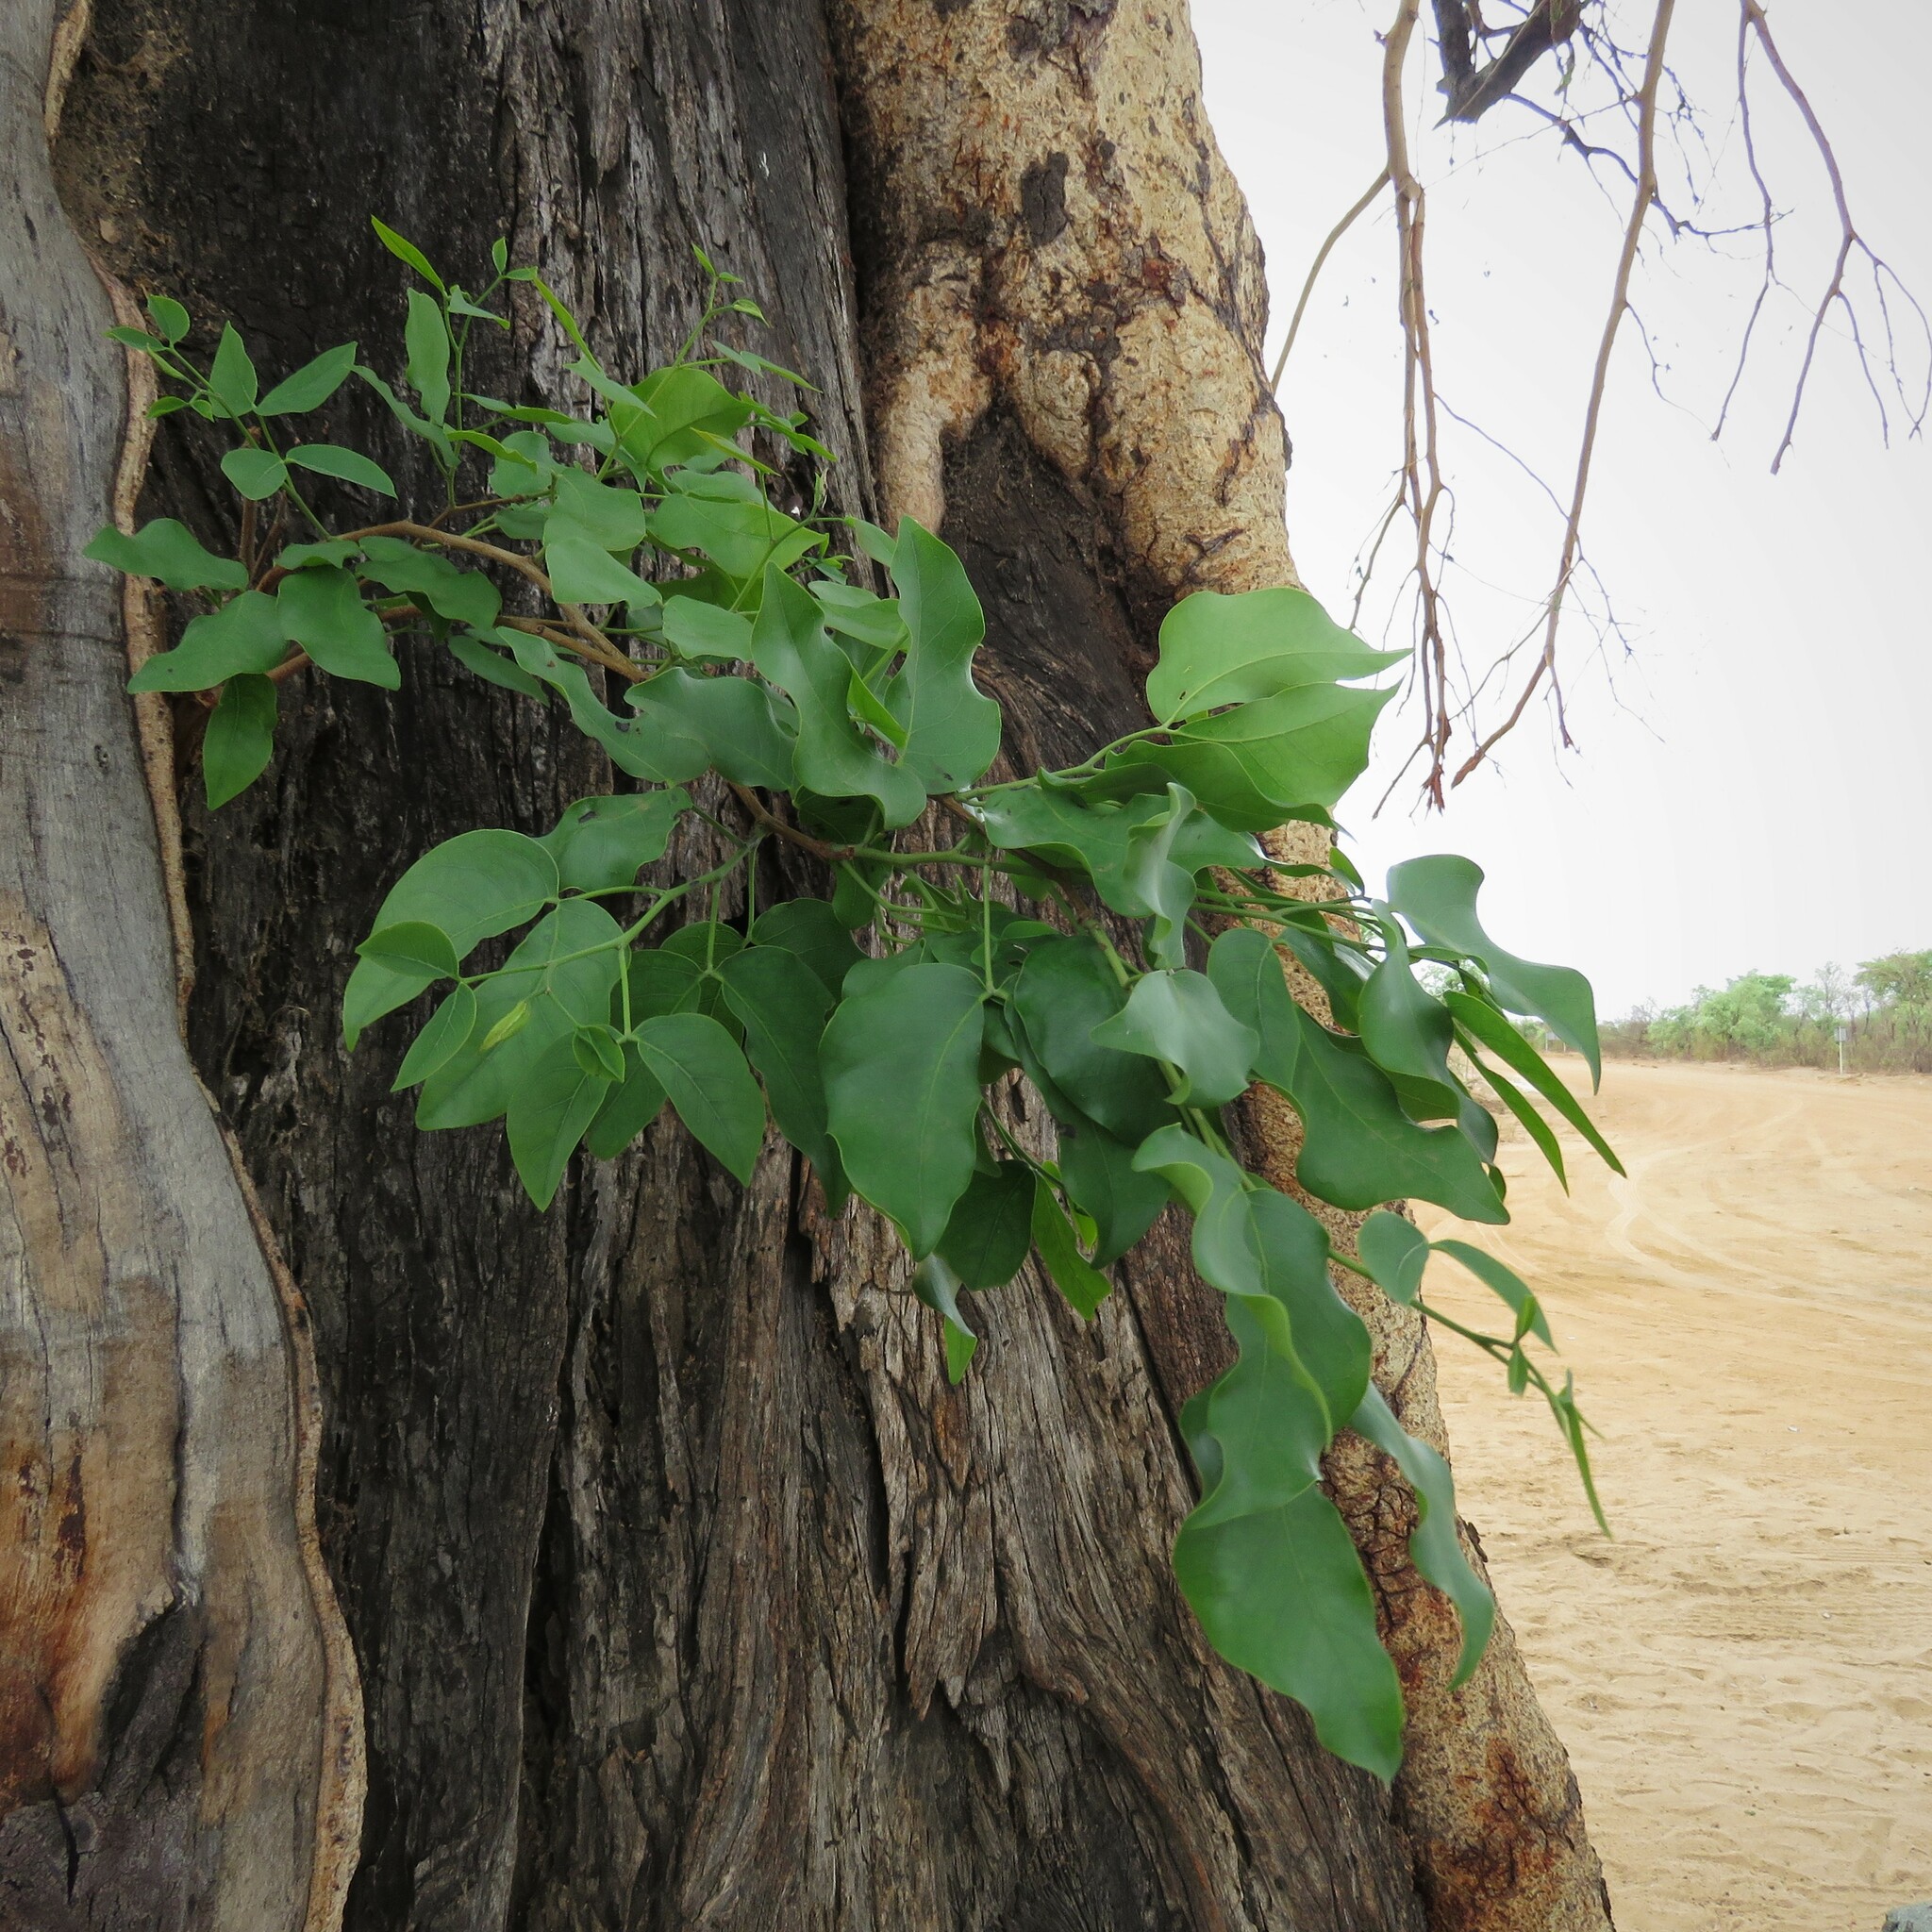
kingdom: Plantae
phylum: Tracheophyta
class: Magnoliopsida
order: Fabales
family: Fabaceae
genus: Guibourtia
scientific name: Guibourtia coleosperma
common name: African rosewoood
